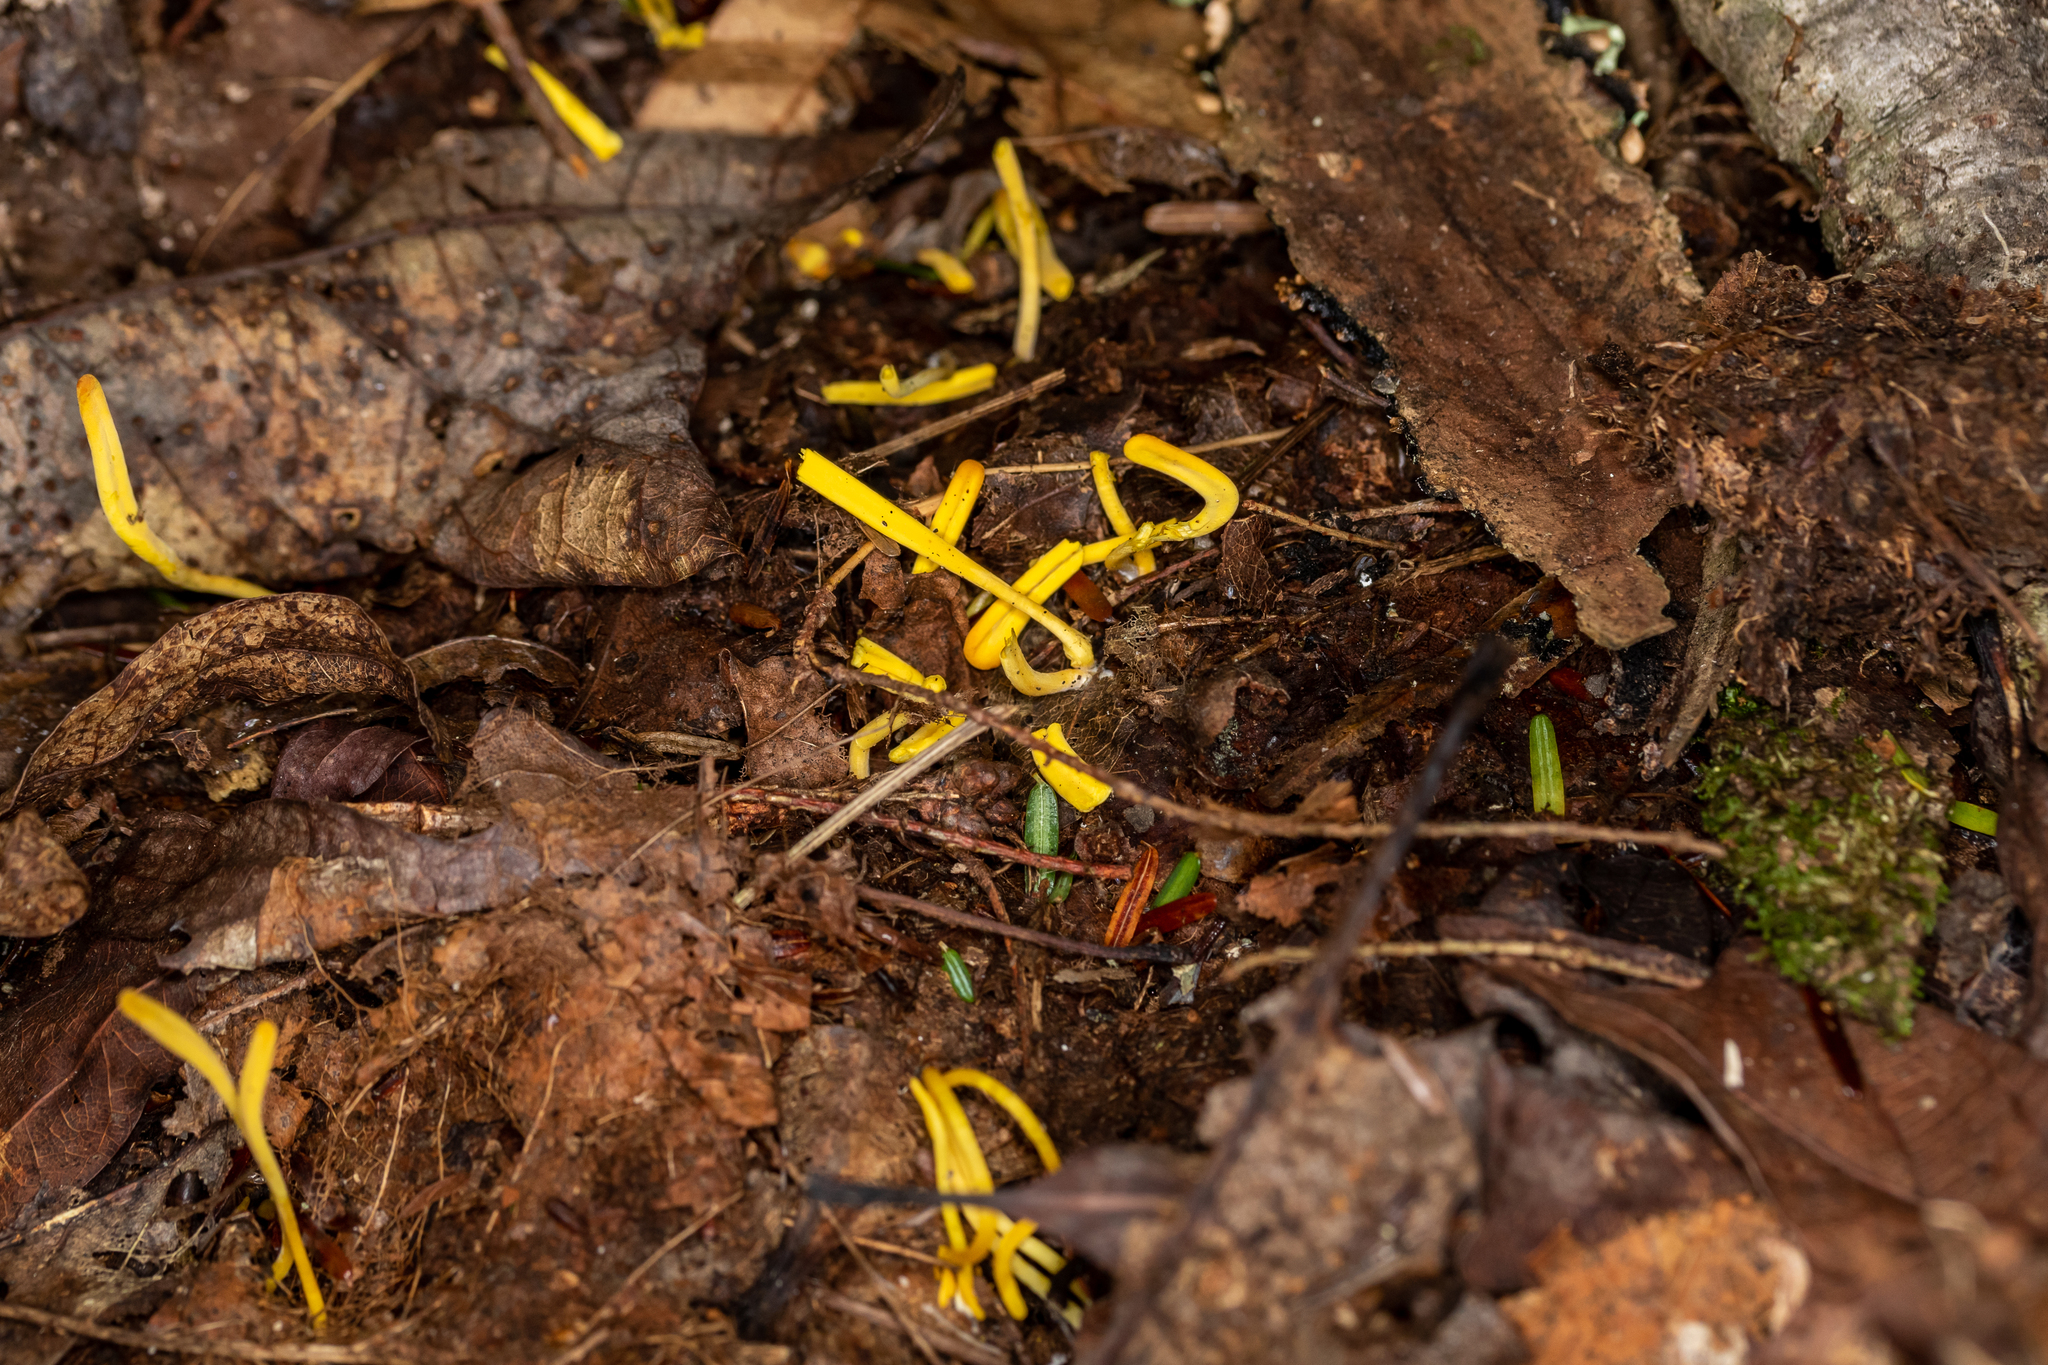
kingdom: Fungi
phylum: Basidiomycota
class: Agaricomycetes
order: Agaricales
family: Clavariaceae
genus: Clavulinopsis
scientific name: Clavulinopsis fusiformis
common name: Golden spindles
